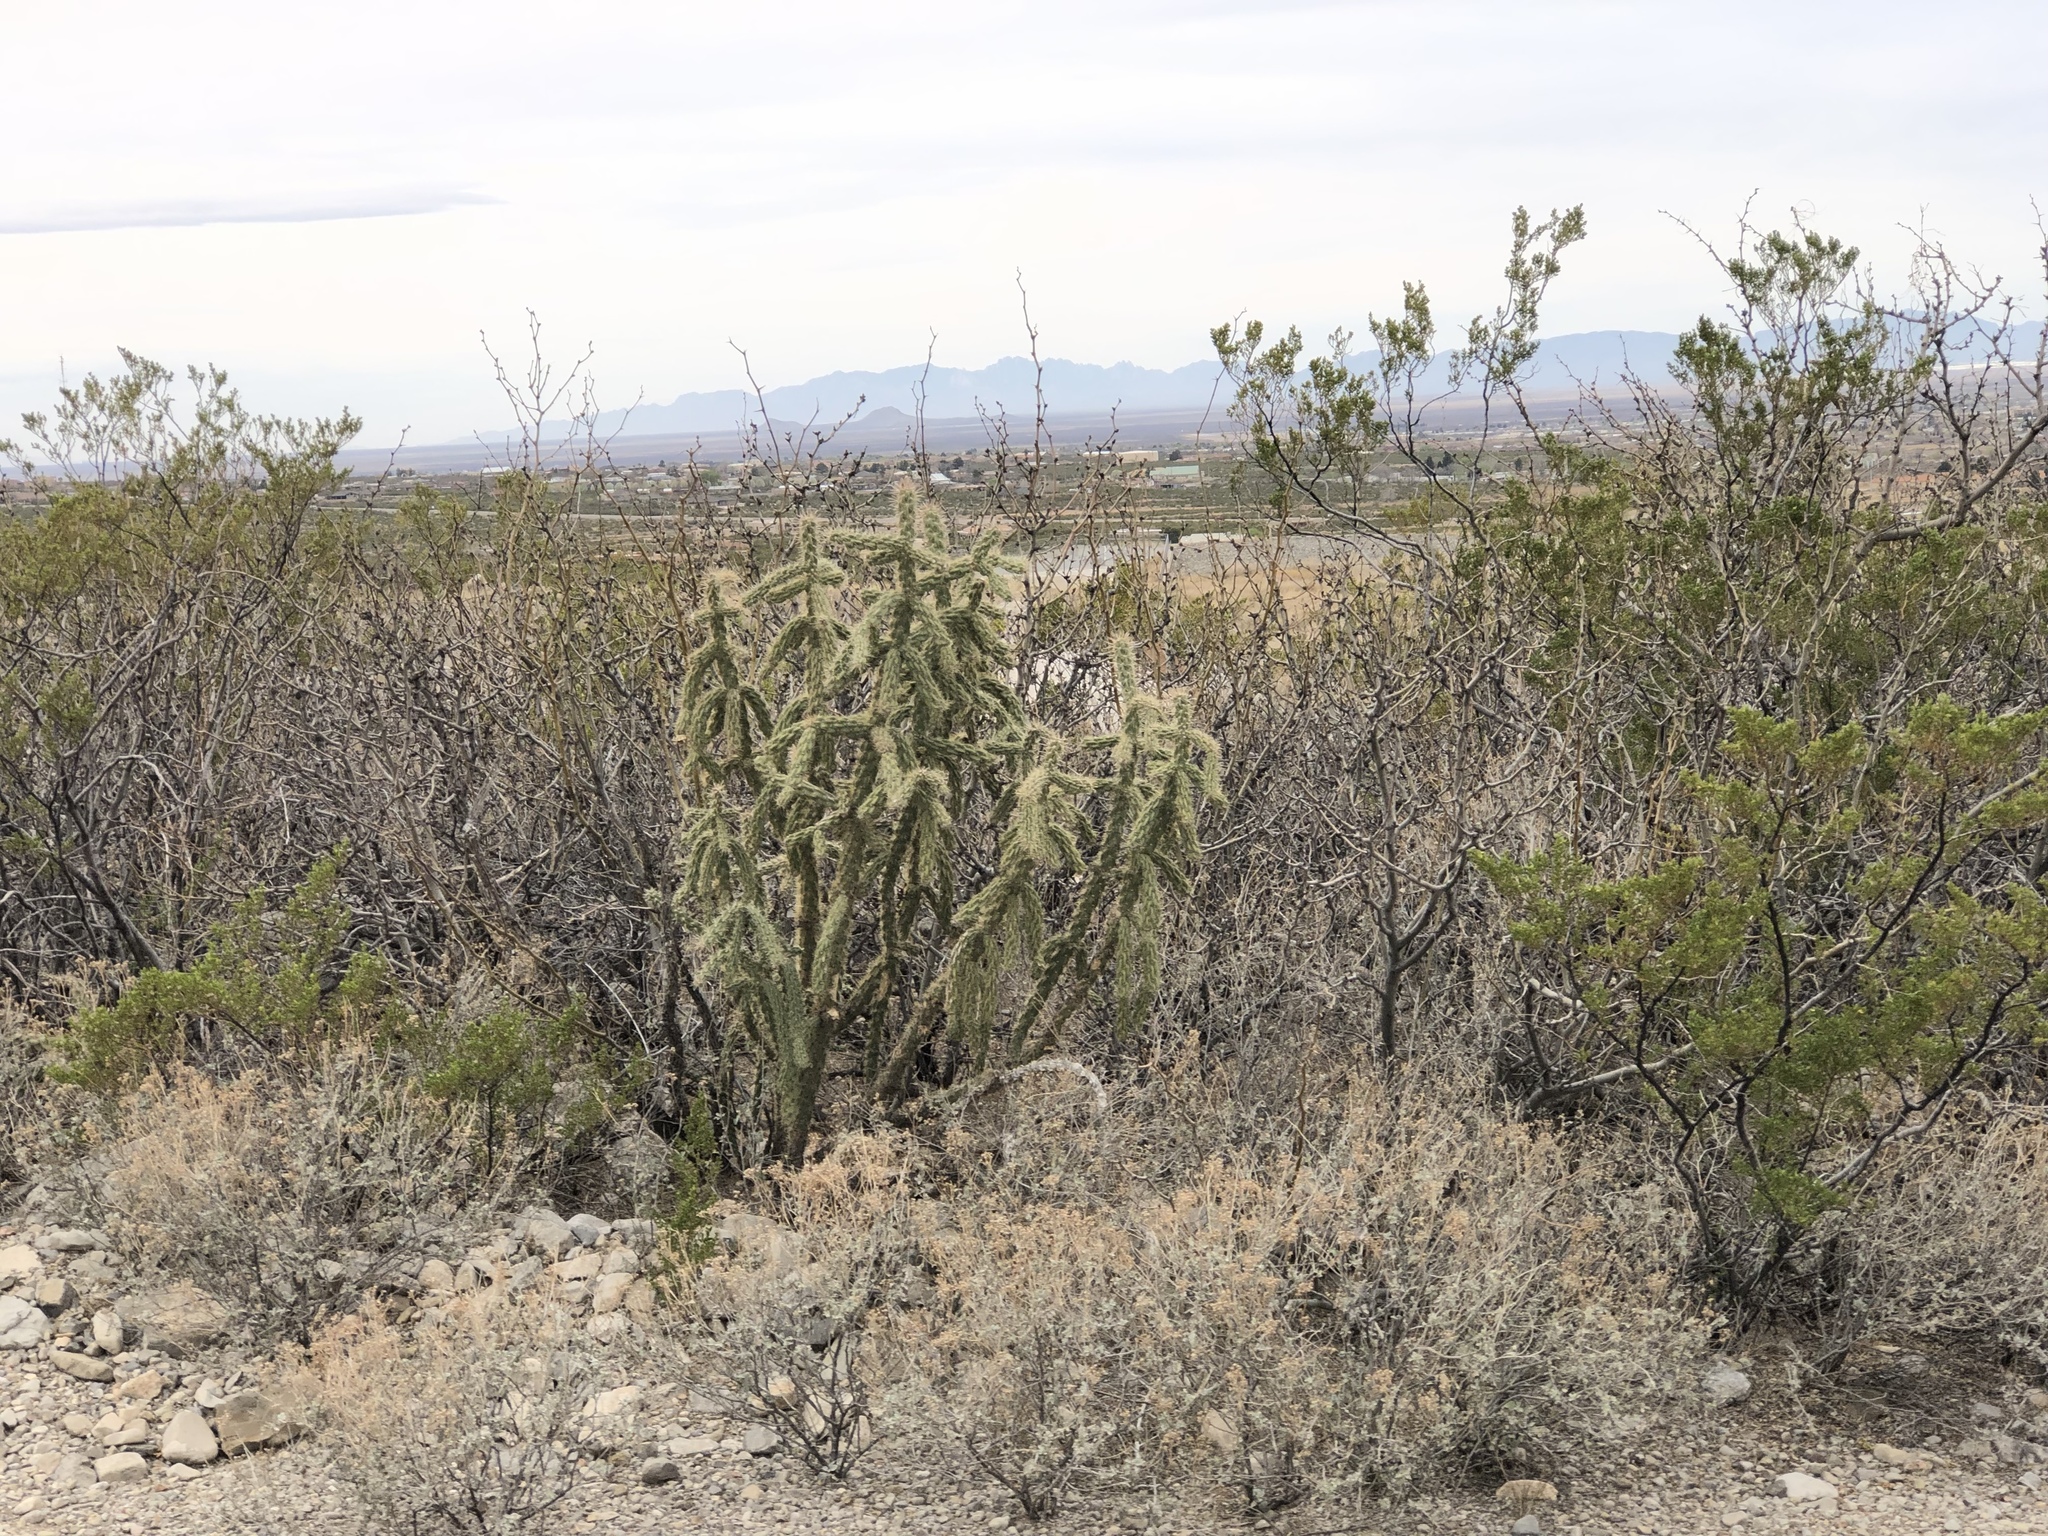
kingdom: Plantae
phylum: Tracheophyta
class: Magnoliopsida
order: Caryophyllales
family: Cactaceae
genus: Cylindropuntia
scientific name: Cylindropuntia imbricata
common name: Candelabrum cactus
